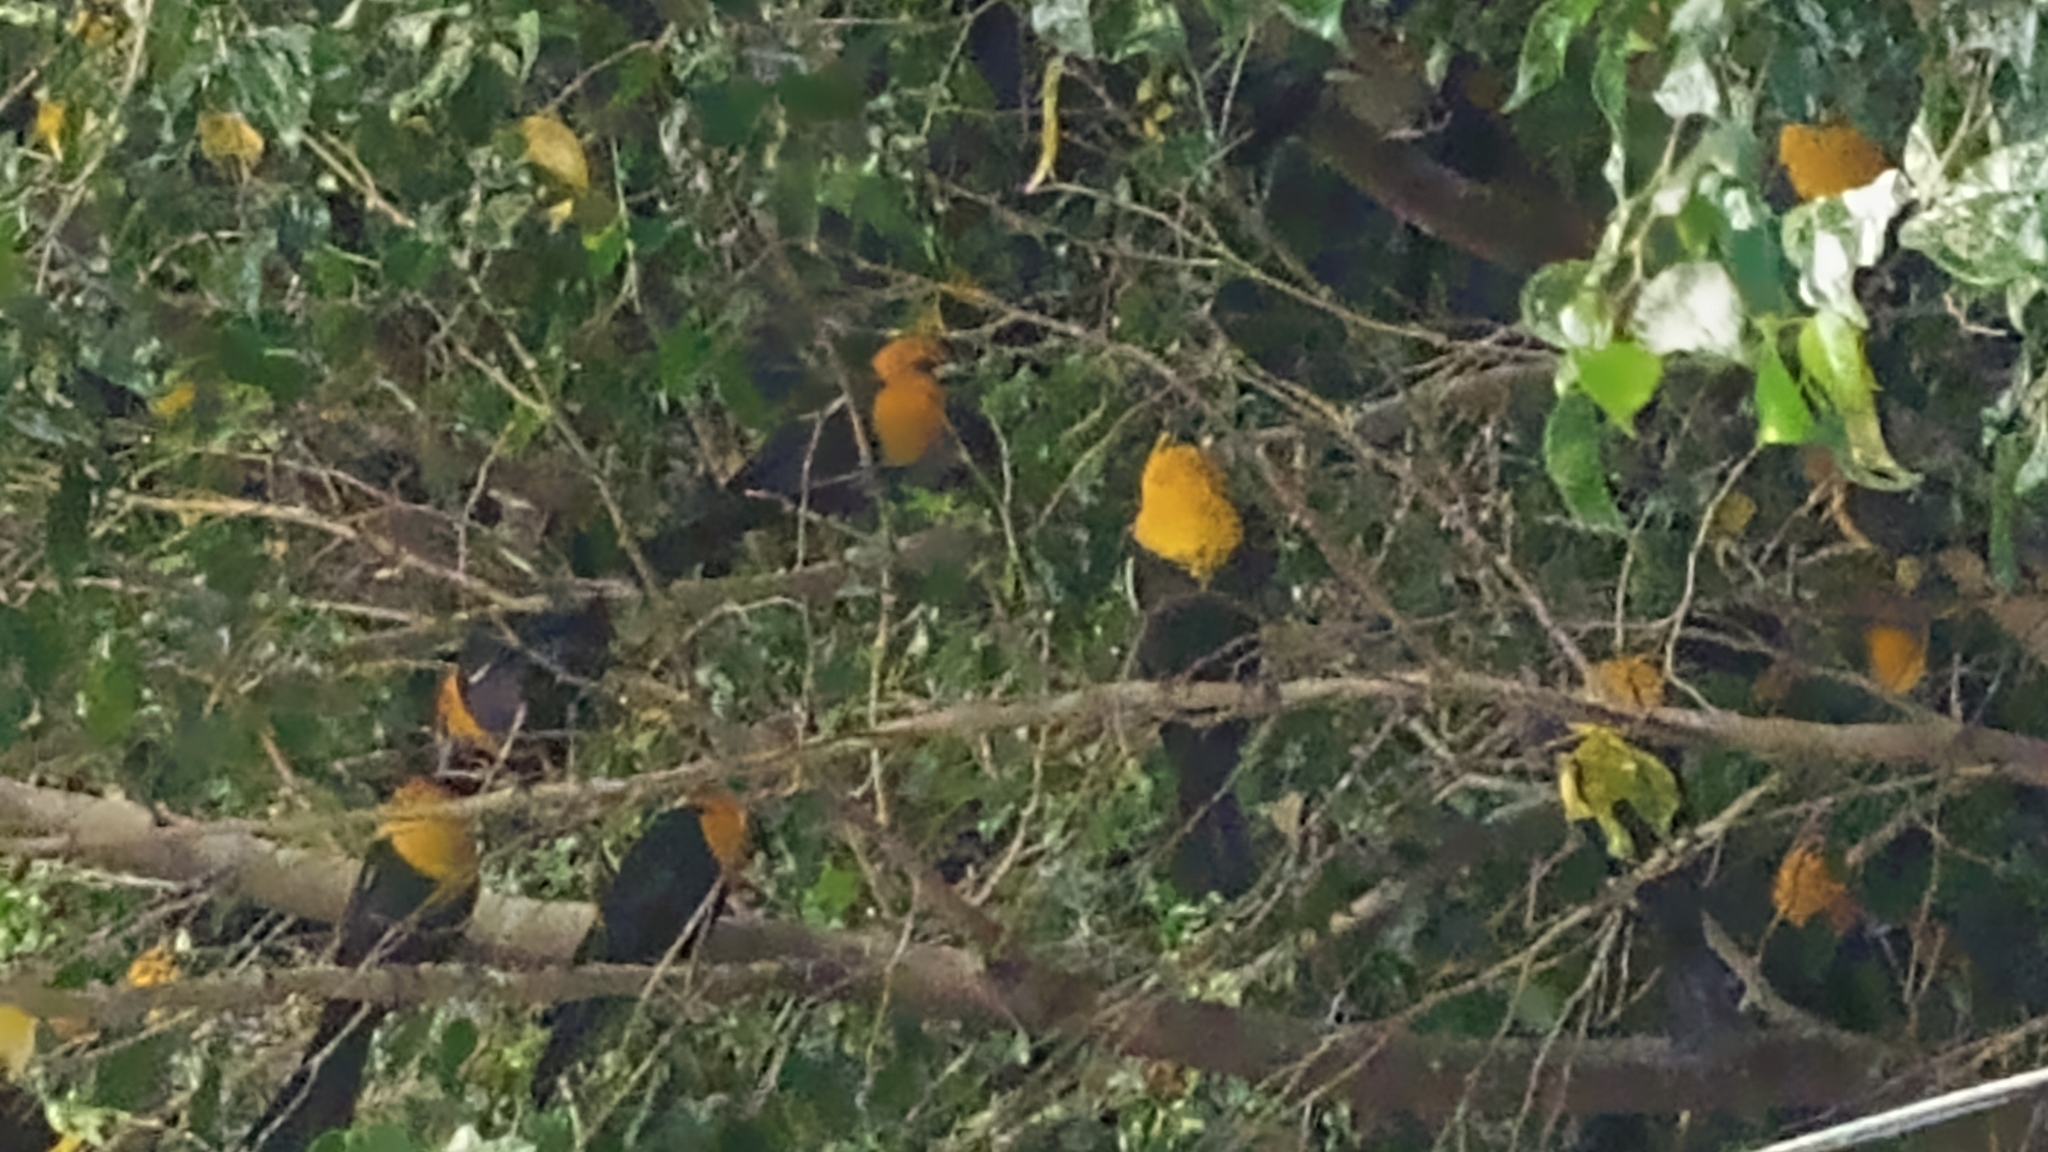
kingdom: Animalia
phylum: Chordata
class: Aves
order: Passeriformes
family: Icteridae
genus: Xanthocephalus
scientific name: Xanthocephalus xanthocephalus
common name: Yellow-headed blackbird
